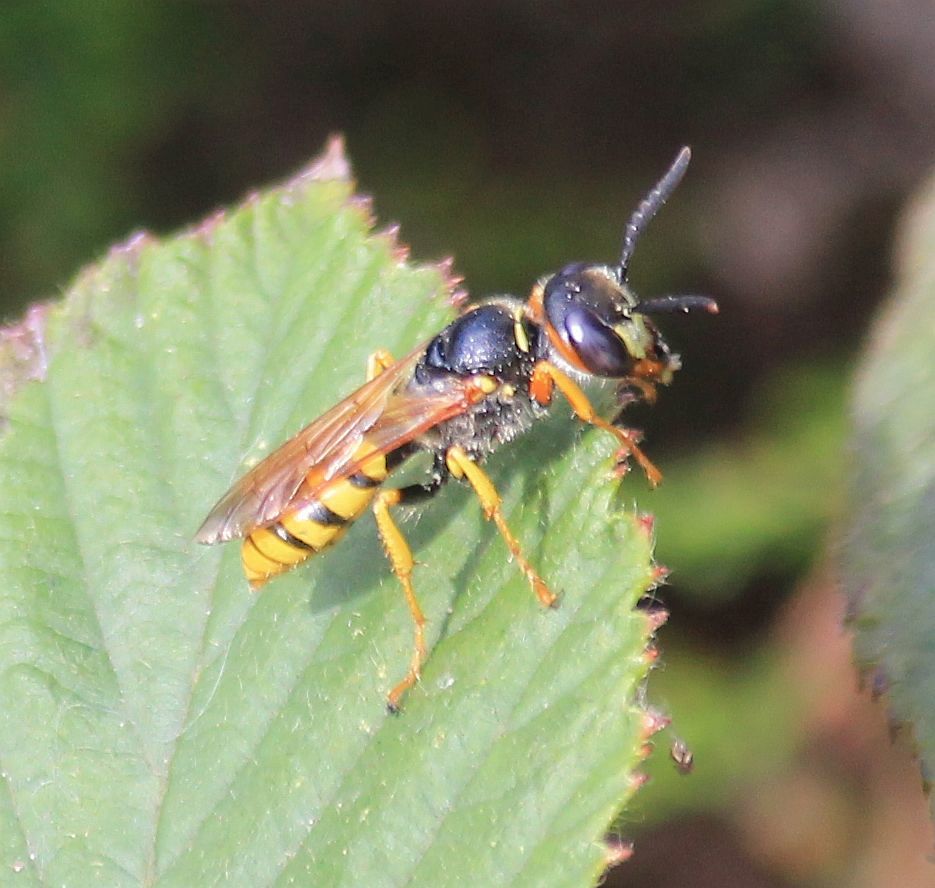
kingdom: Animalia
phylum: Arthropoda
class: Insecta
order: Hymenoptera
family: Crabronidae
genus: Philanthus
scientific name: Philanthus triangulum
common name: Bee wolf
